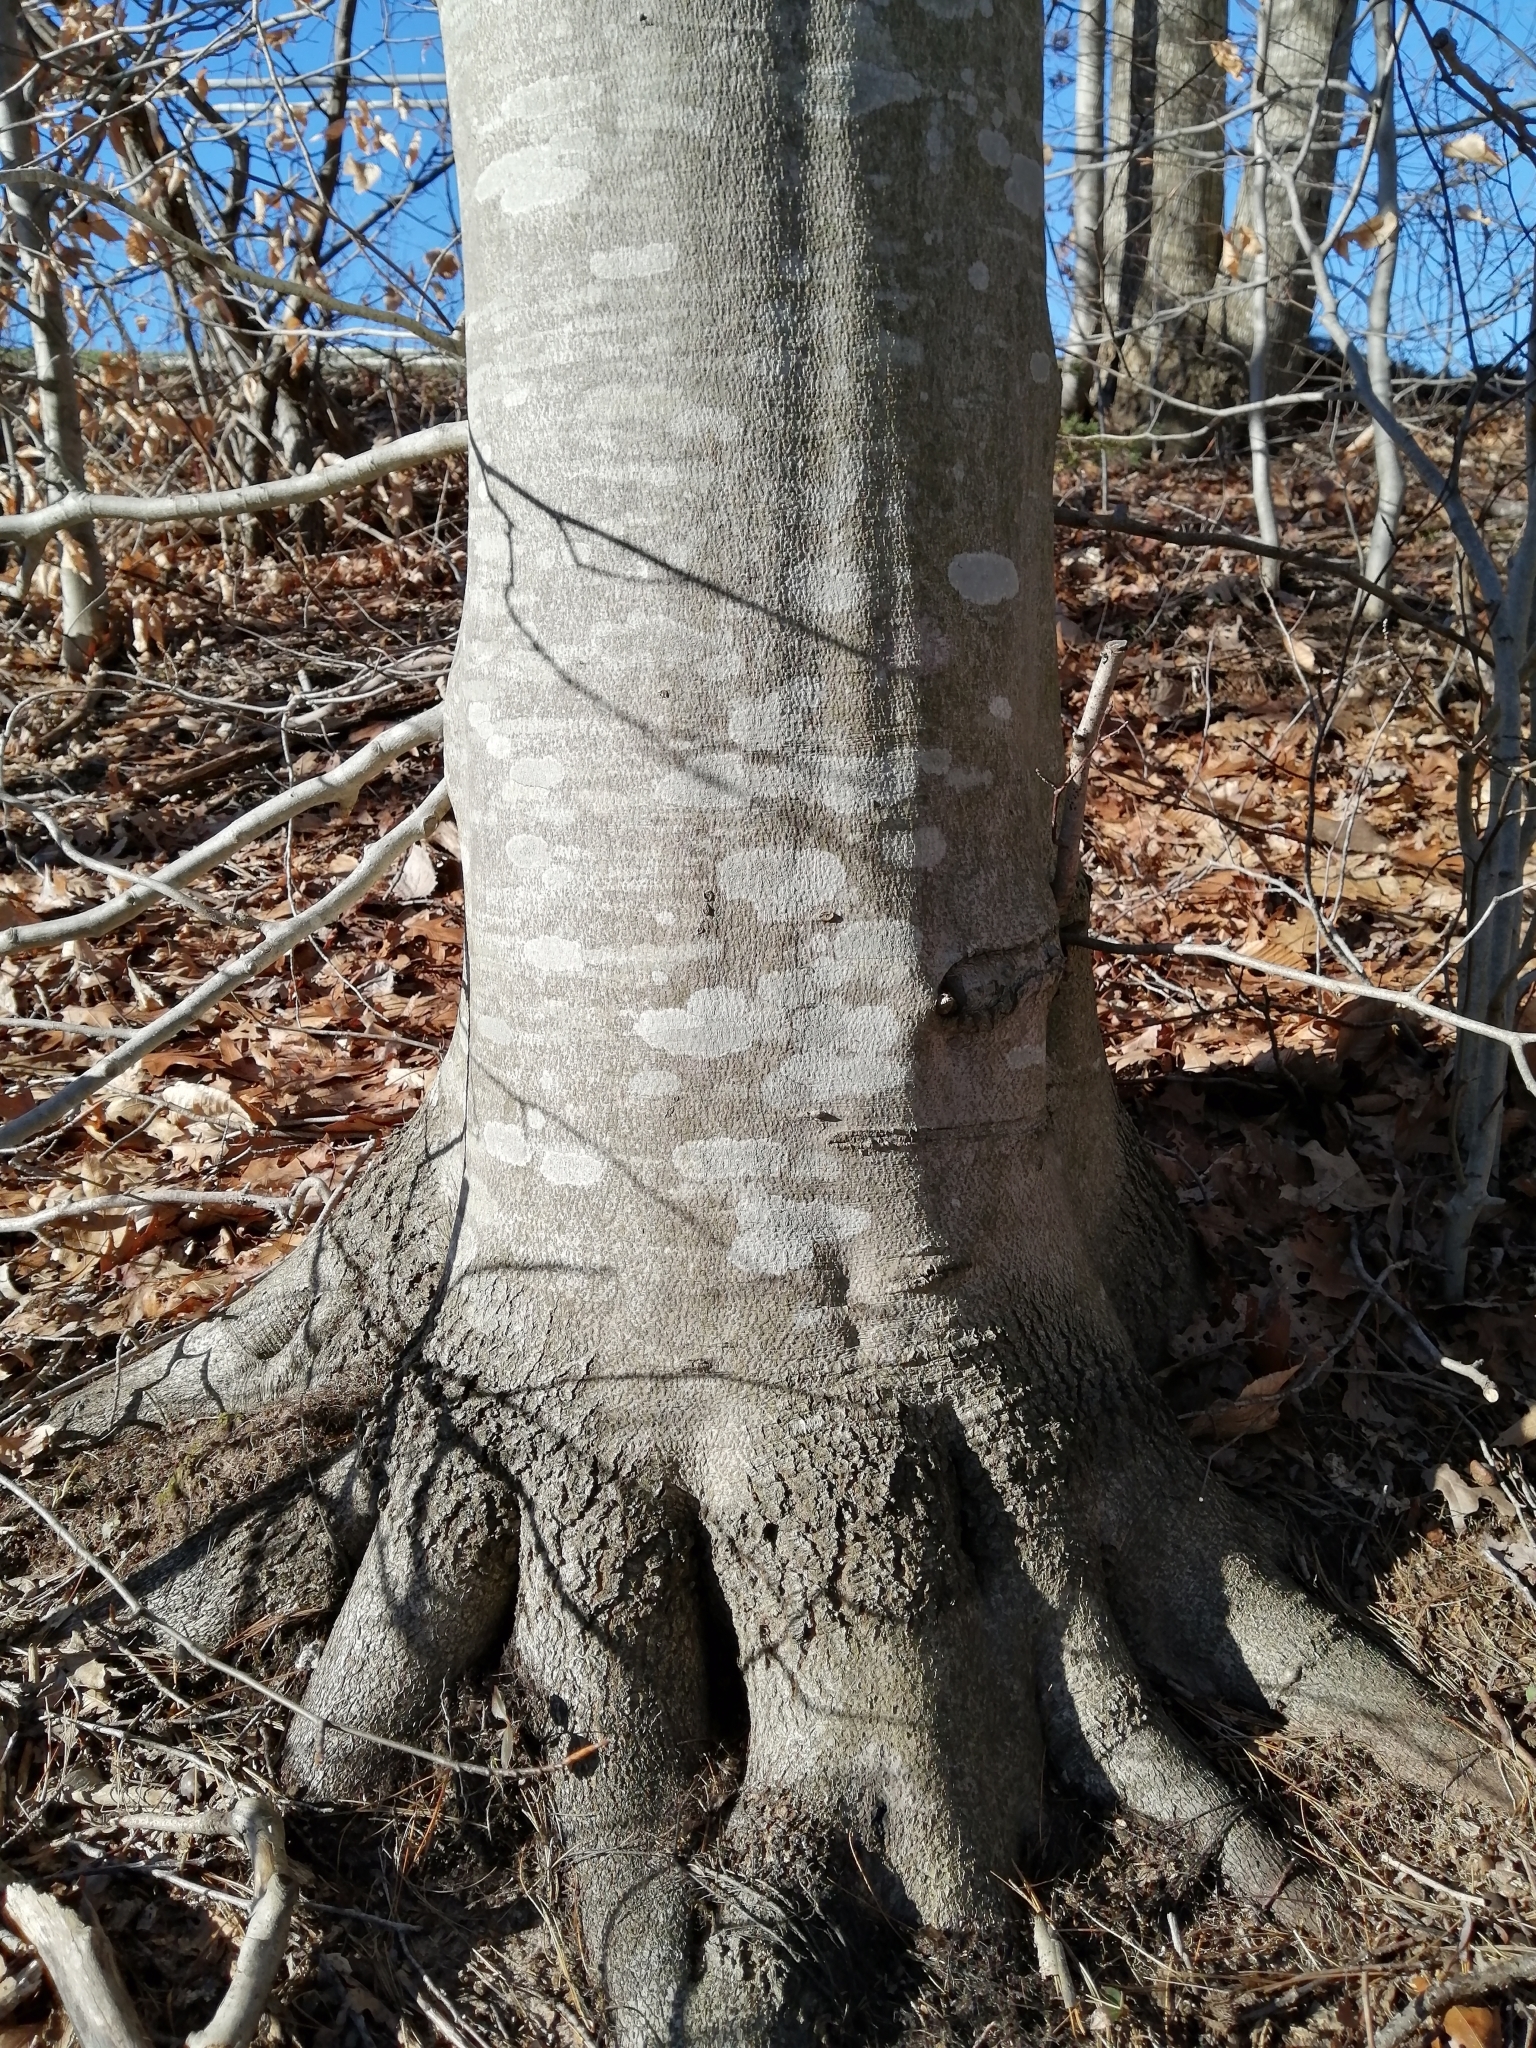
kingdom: Plantae
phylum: Tracheophyta
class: Magnoliopsida
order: Fagales
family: Fagaceae
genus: Fagus
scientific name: Fagus grandifolia
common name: American beech
